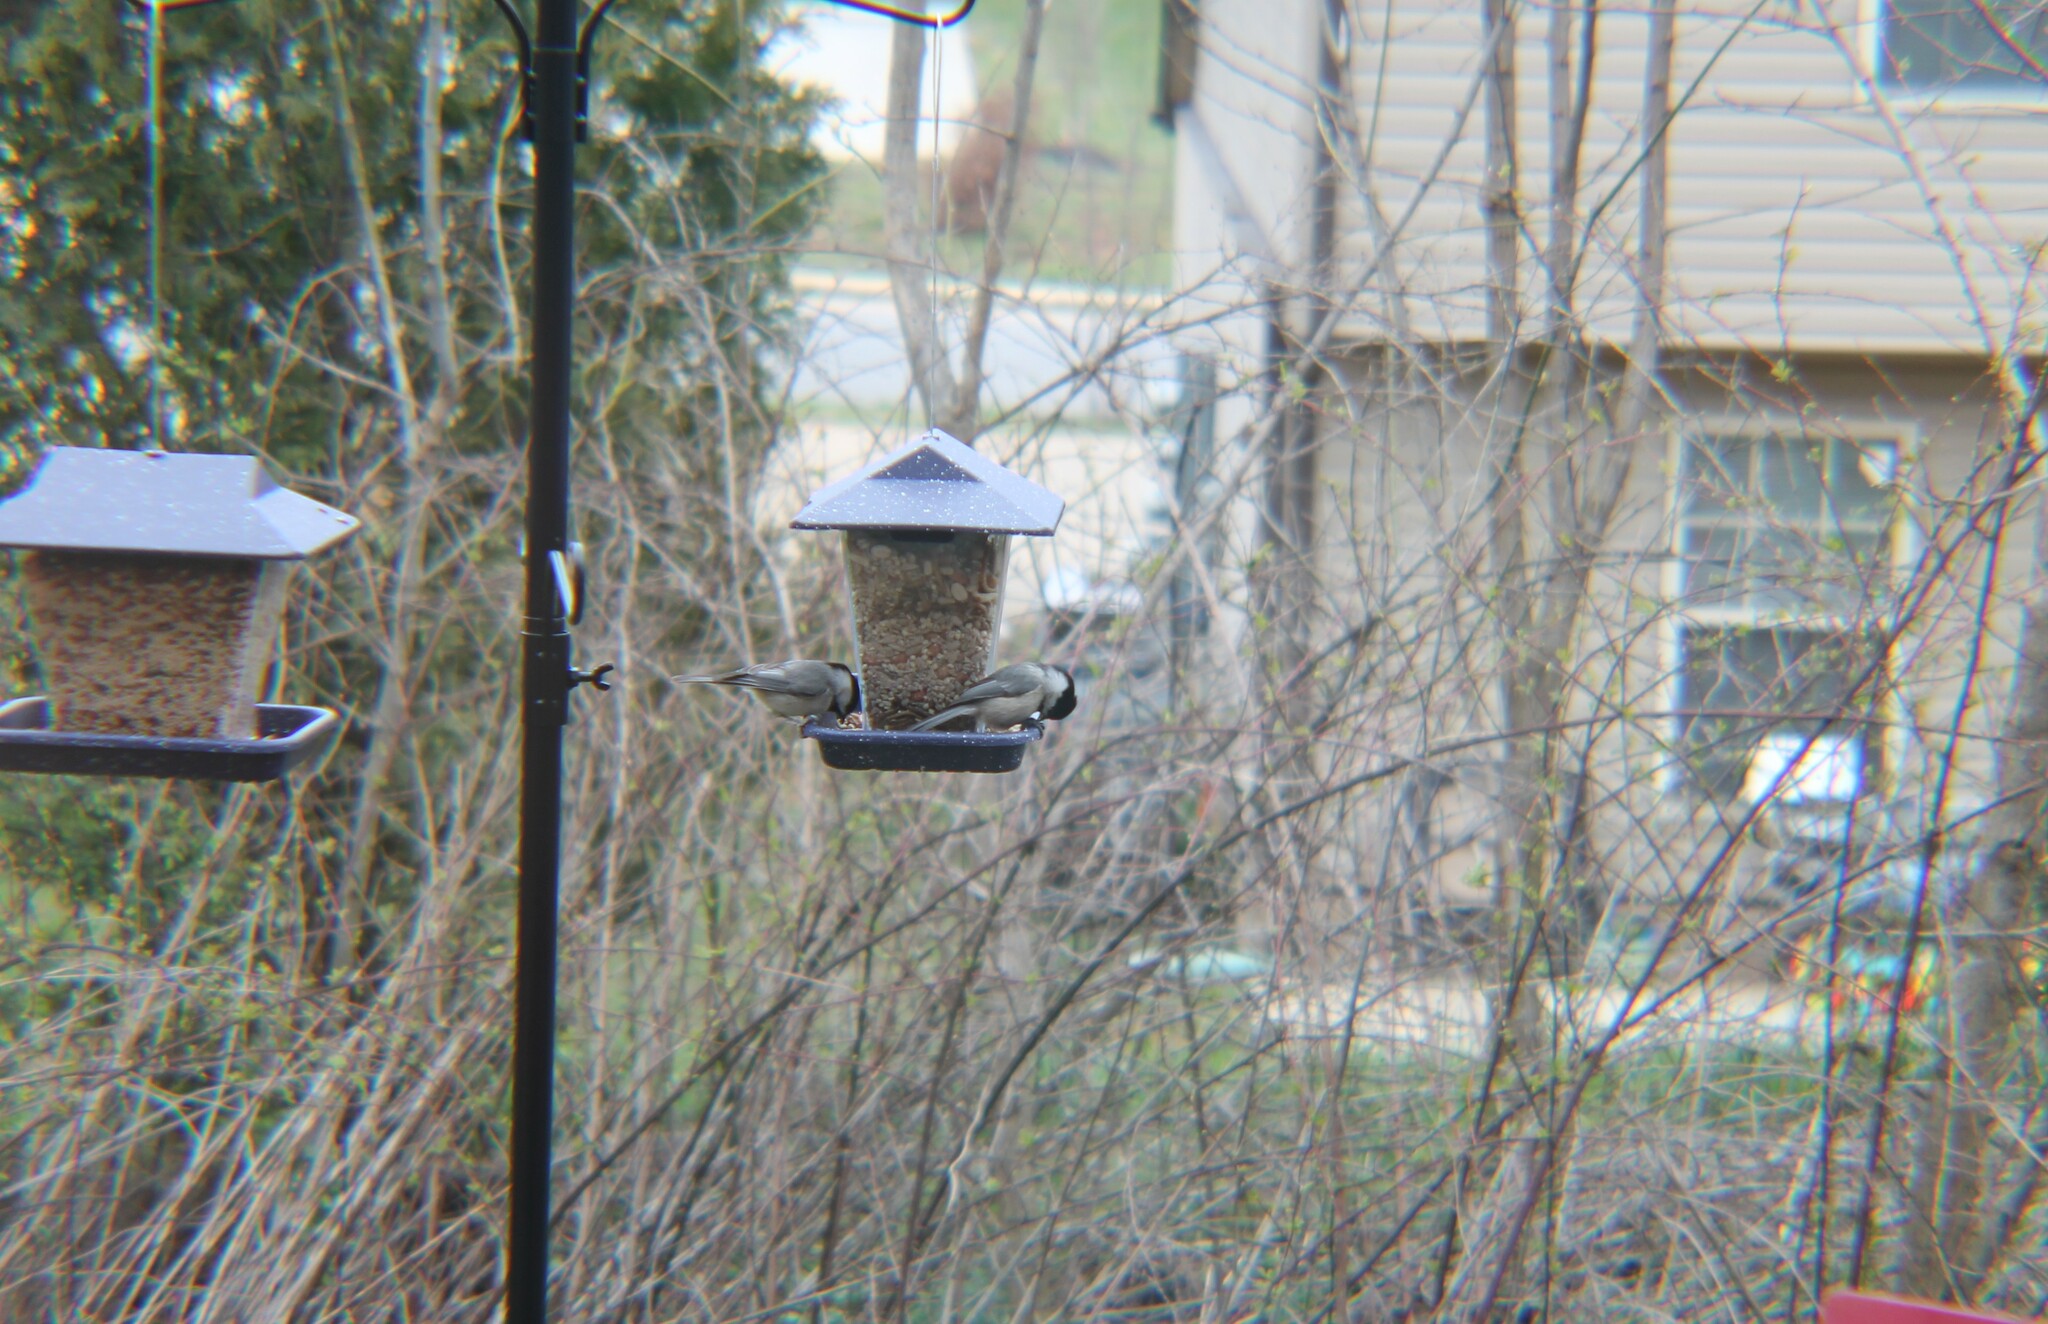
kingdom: Animalia
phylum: Chordata
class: Aves
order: Passeriformes
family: Paridae
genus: Poecile
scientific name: Poecile carolinensis
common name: Carolina chickadee
